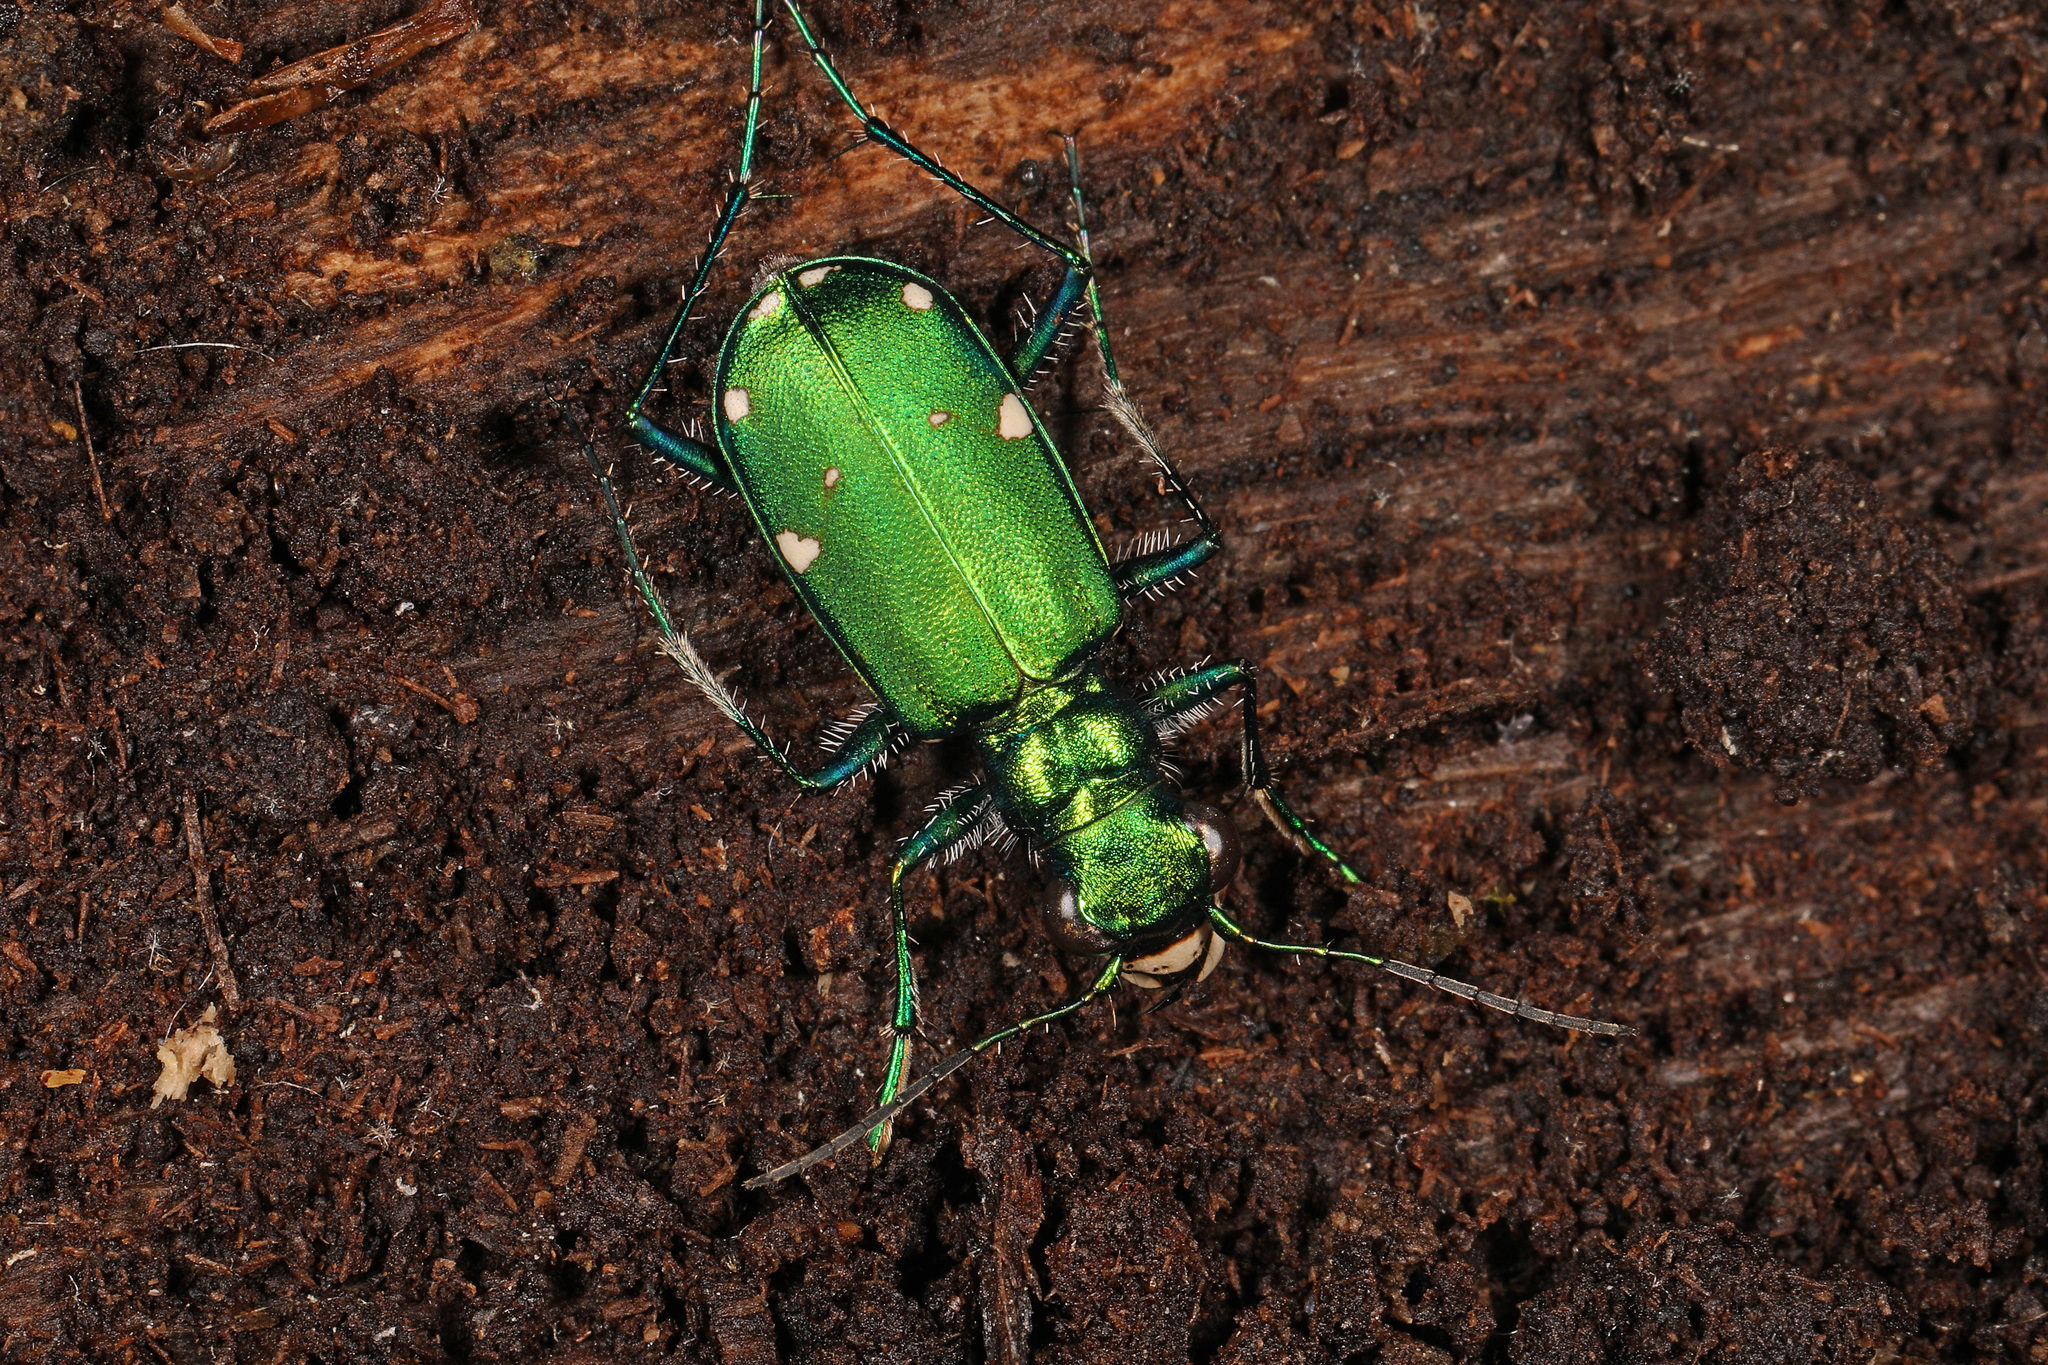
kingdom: Animalia
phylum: Arthropoda
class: Insecta
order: Coleoptera
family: Carabidae
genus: Cicindela
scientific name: Cicindela sexguttata
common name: Six-spotted tiger beetle
